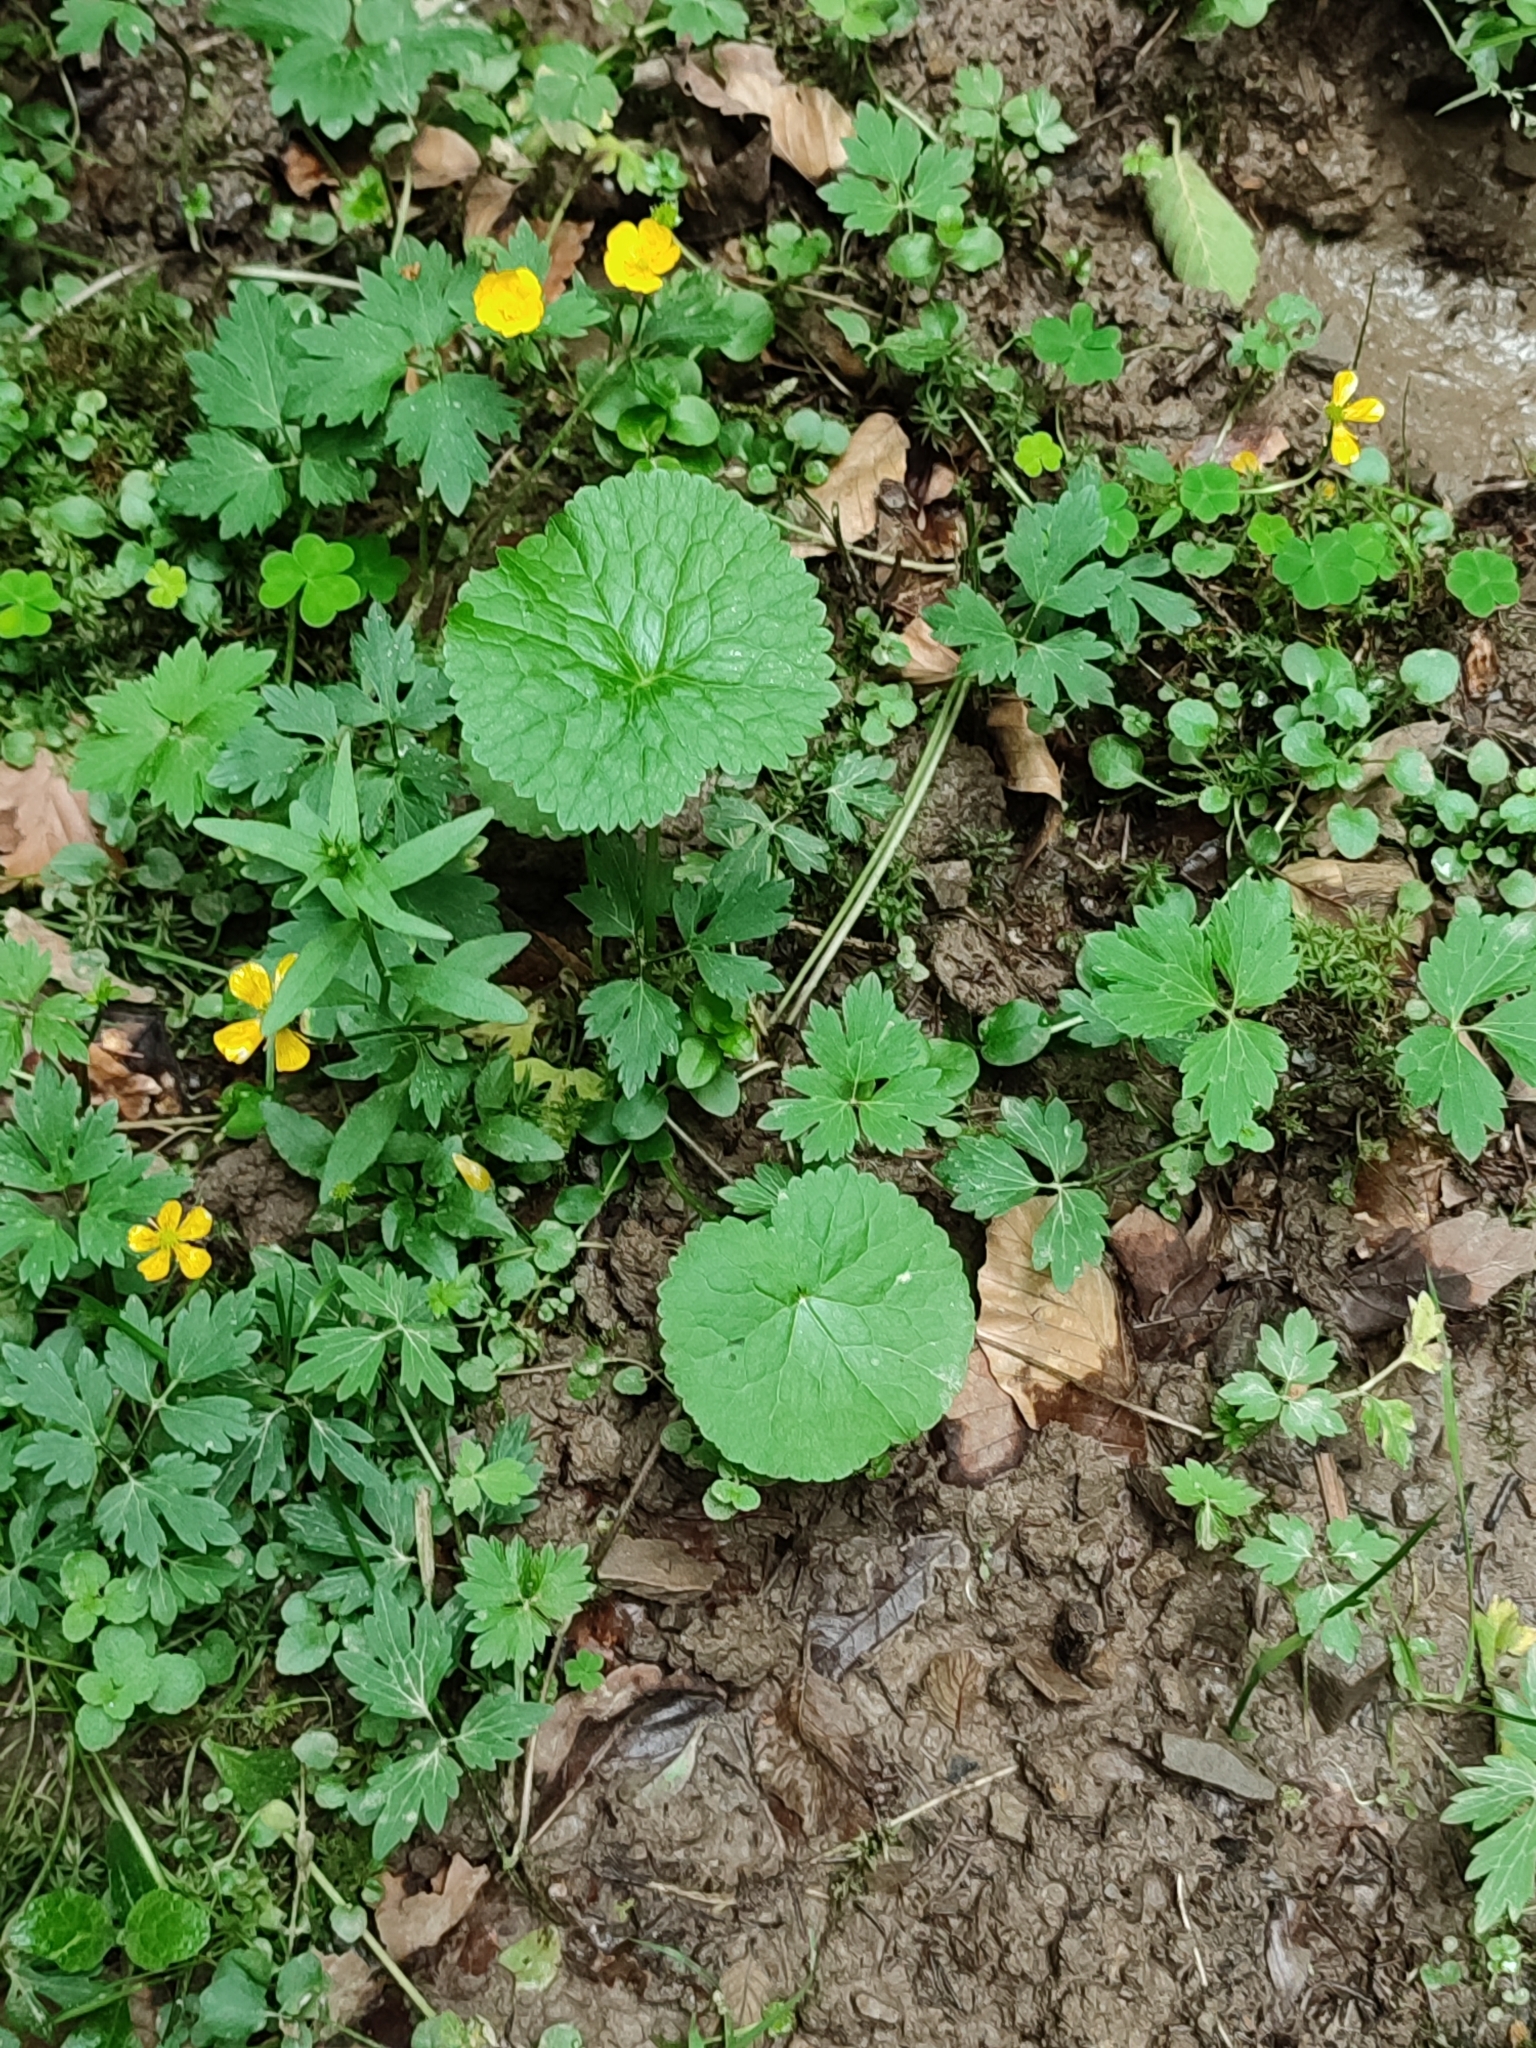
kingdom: Plantae
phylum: Tracheophyta
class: Magnoliopsida
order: Ranunculales
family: Ranunculaceae
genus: Caltha
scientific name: Caltha palustris
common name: Marsh marigold
